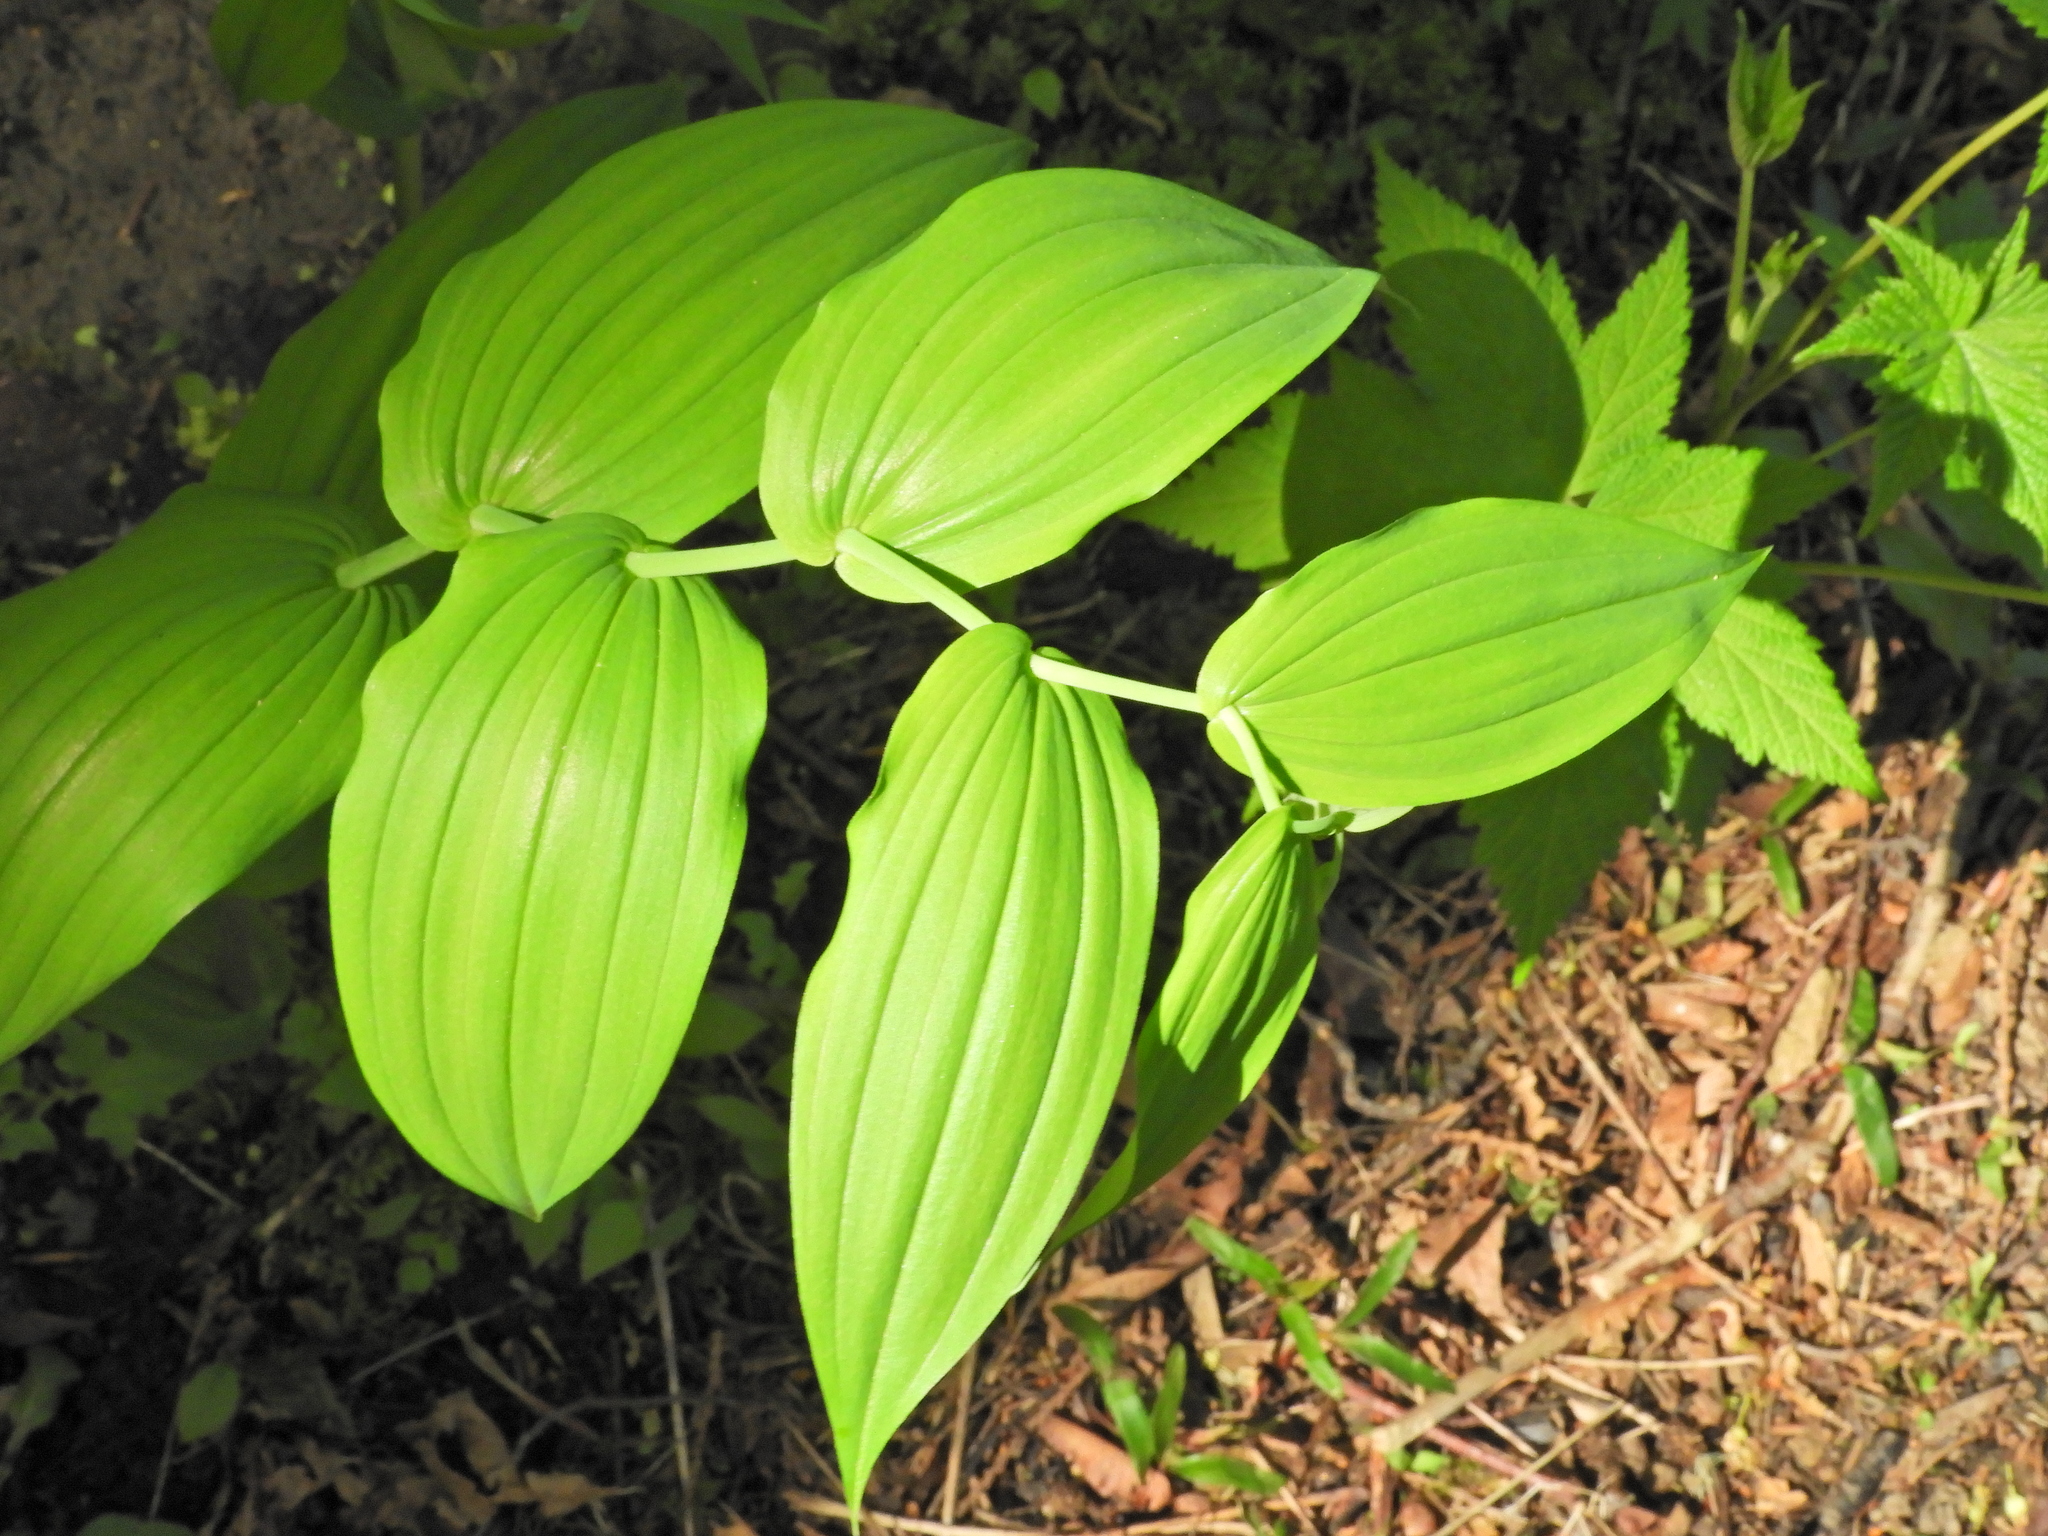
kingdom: Plantae
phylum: Tracheophyta
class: Liliopsida
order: Liliales
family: Liliaceae
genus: Streptopus
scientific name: Streptopus amplexifolius
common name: Clasp twisted stalk
